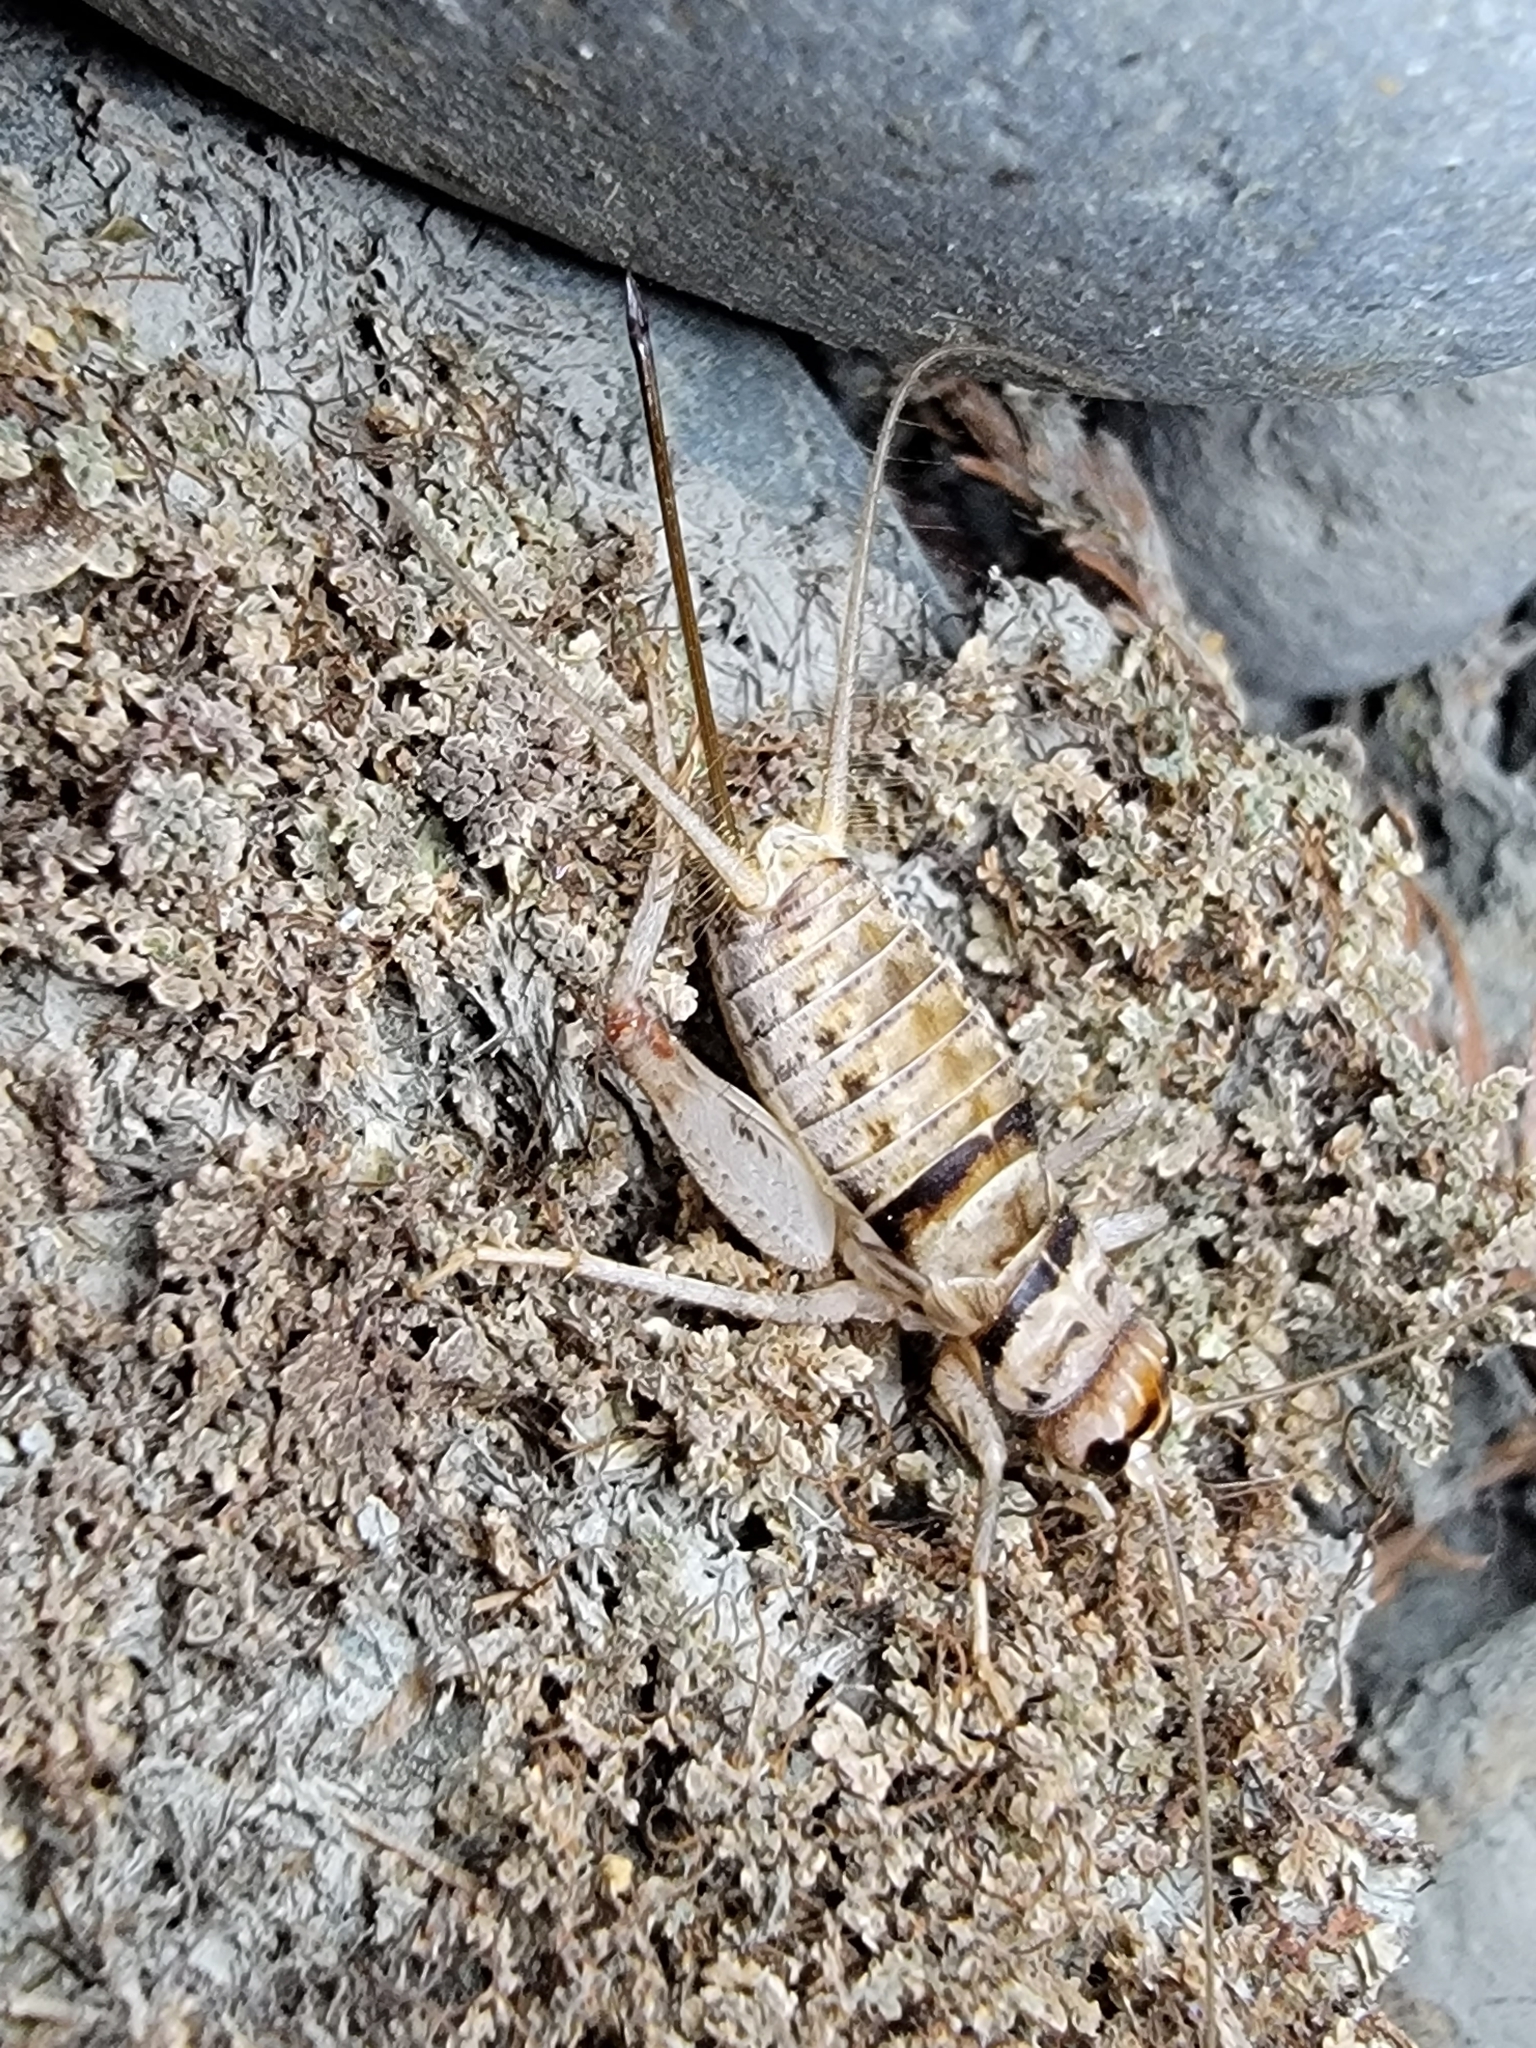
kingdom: Animalia
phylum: Arthropoda
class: Insecta
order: Orthoptera
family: Gryllidae
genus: Gryllodes
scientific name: Gryllodes sigillatus
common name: Tropical house cricket
